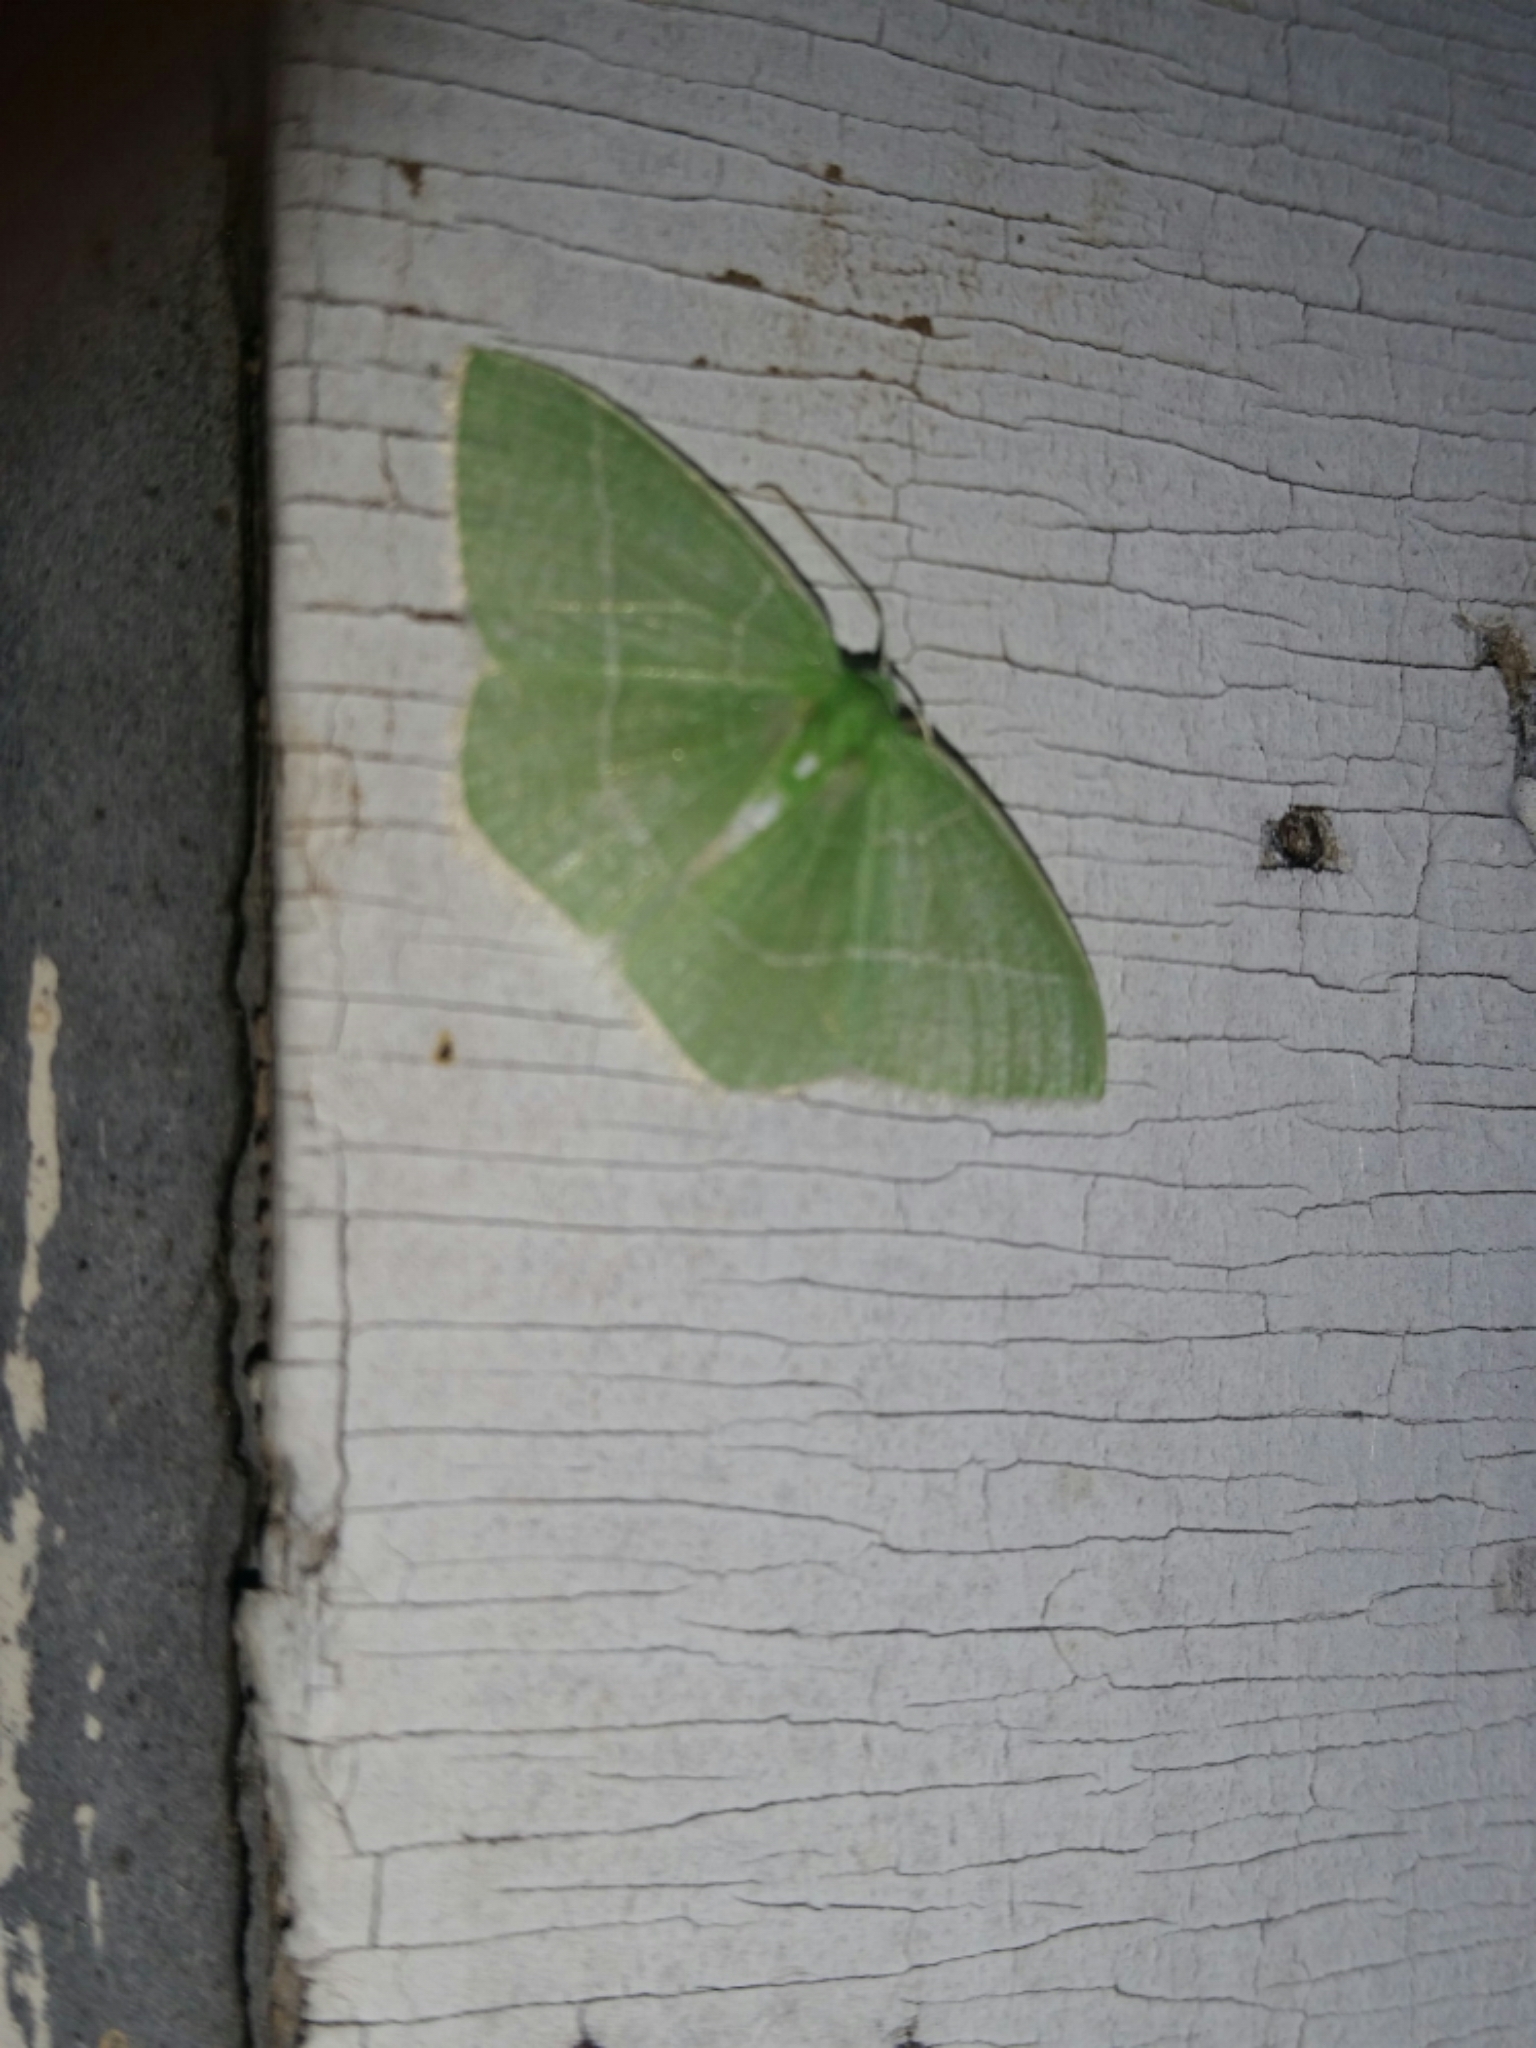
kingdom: Animalia
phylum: Arthropoda
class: Insecta
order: Lepidoptera
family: Geometridae
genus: Nemoria
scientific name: Nemoria mimosaria
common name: White-fringed emerald
